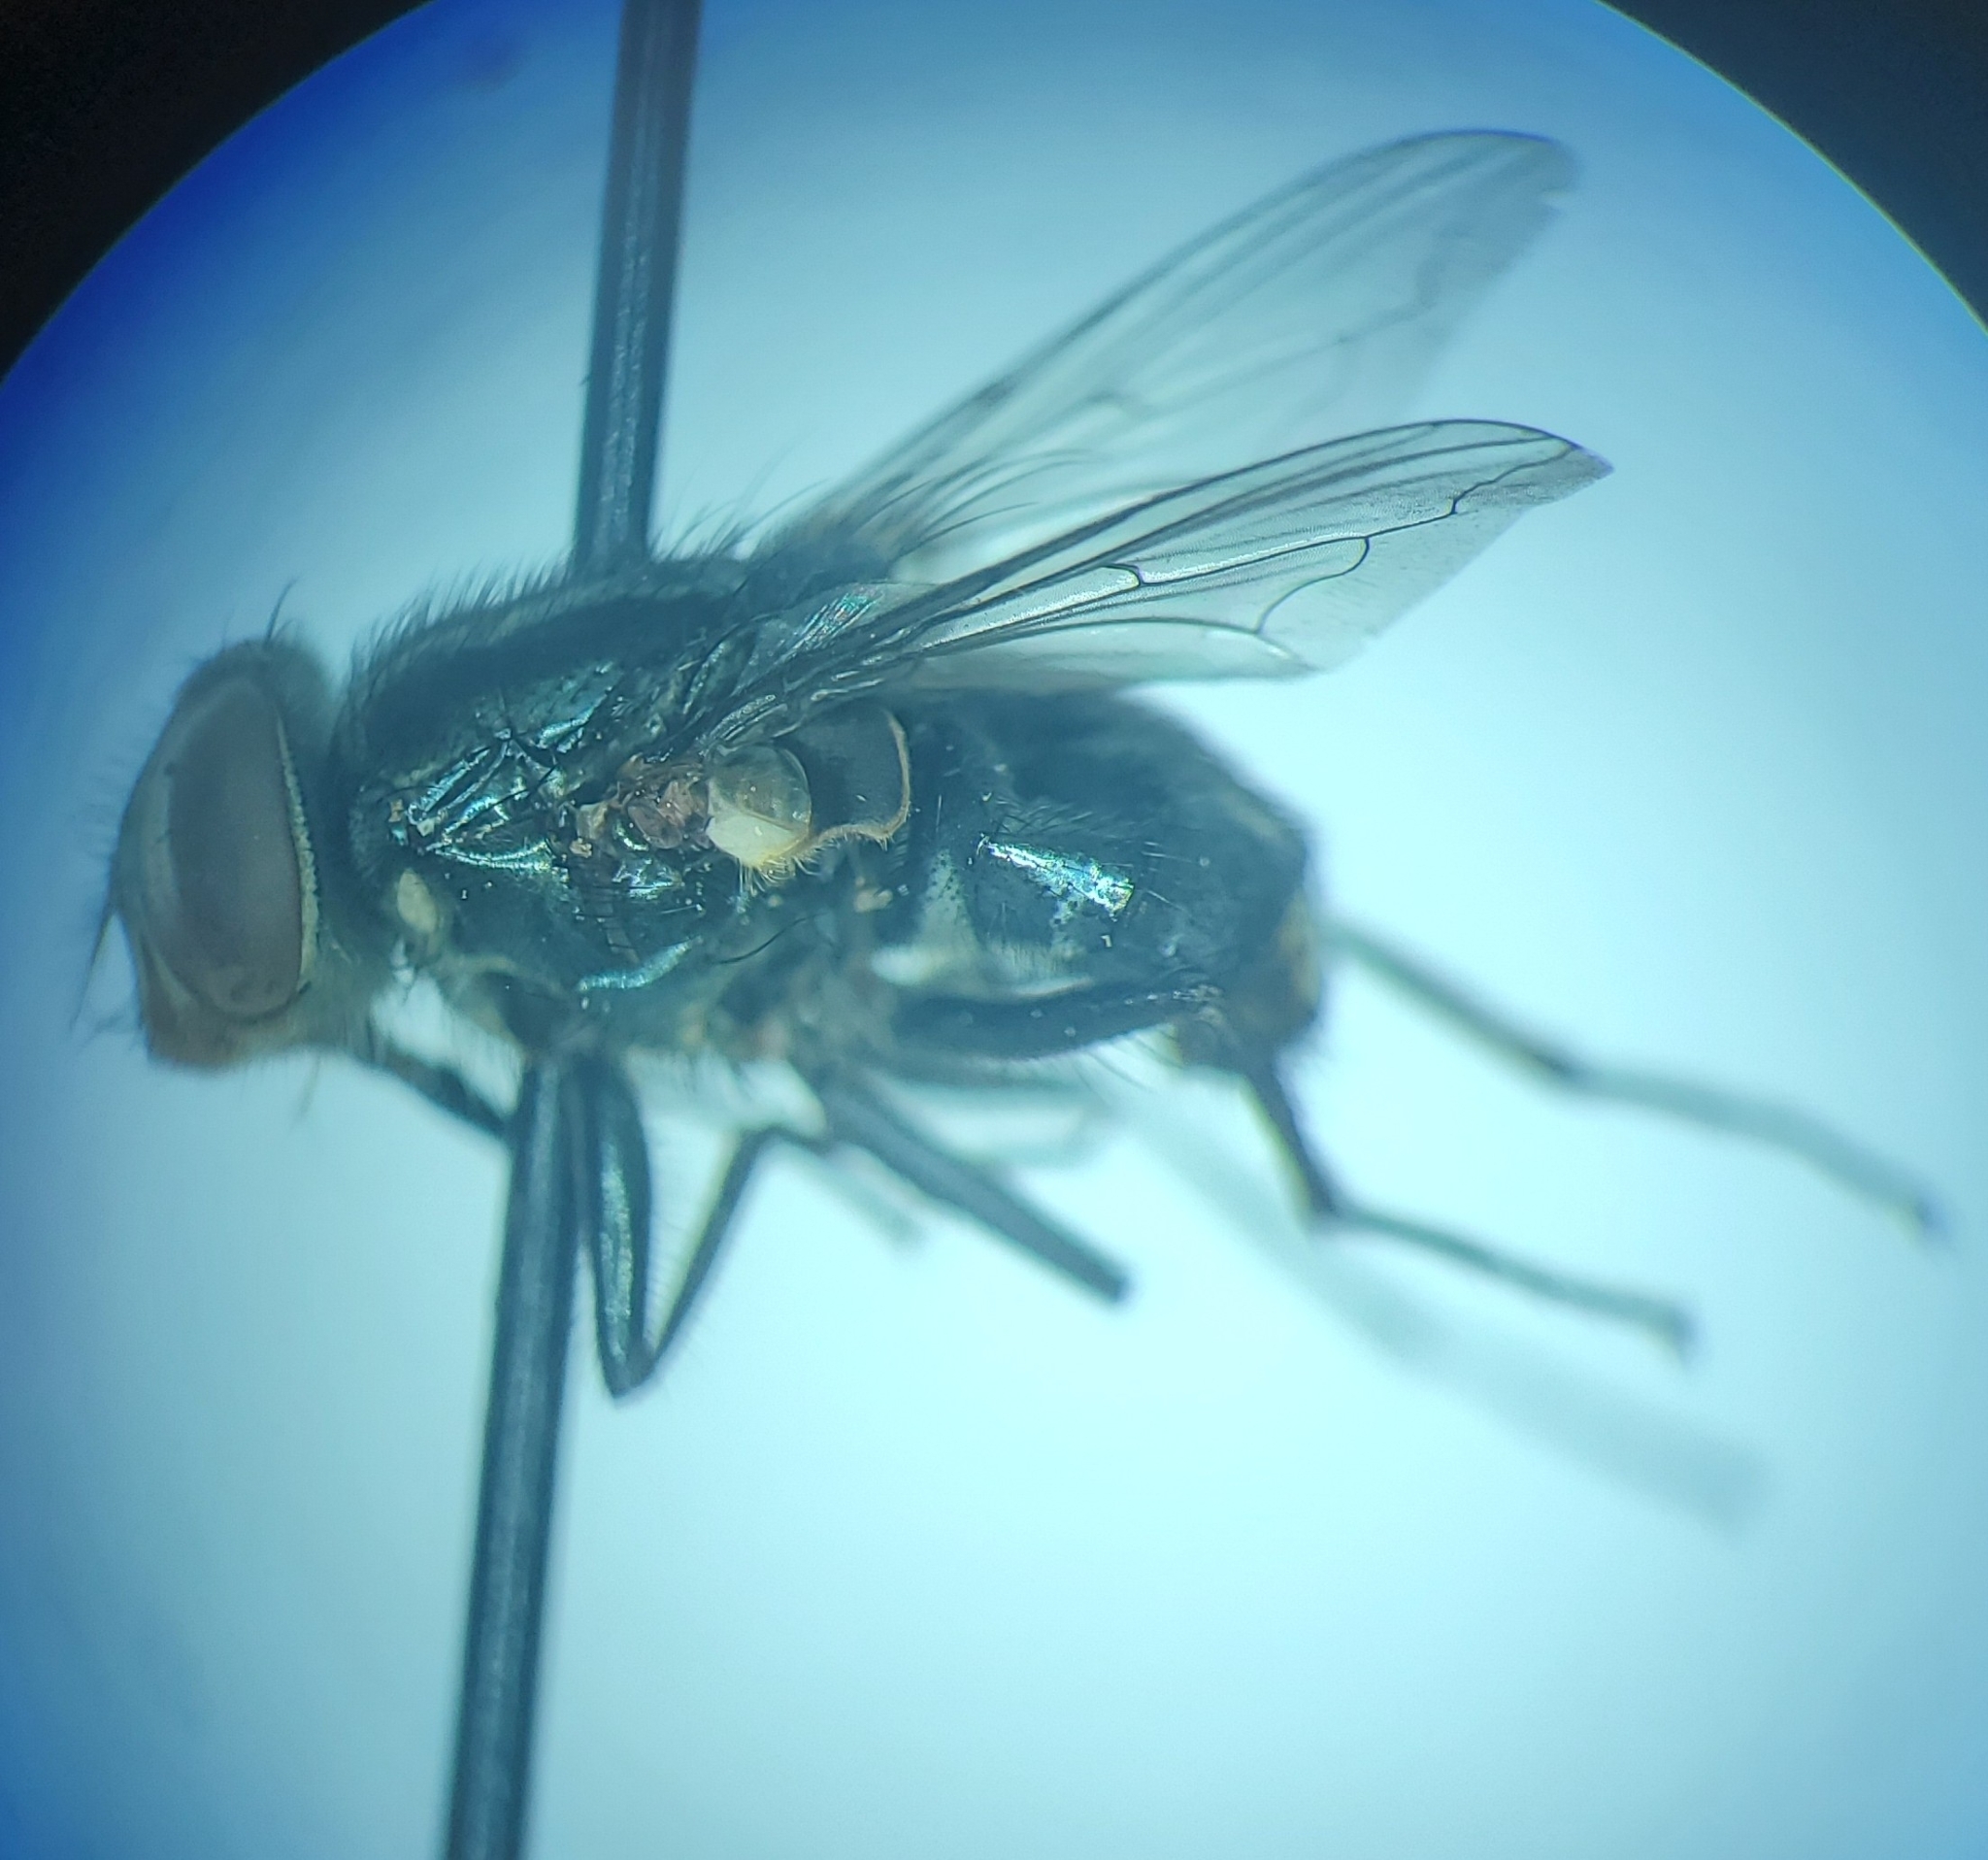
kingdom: Animalia
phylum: Arthropoda
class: Insecta
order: Diptera
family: Calliphoridae
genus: Cochliomyia
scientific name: Cochliomyia minima
